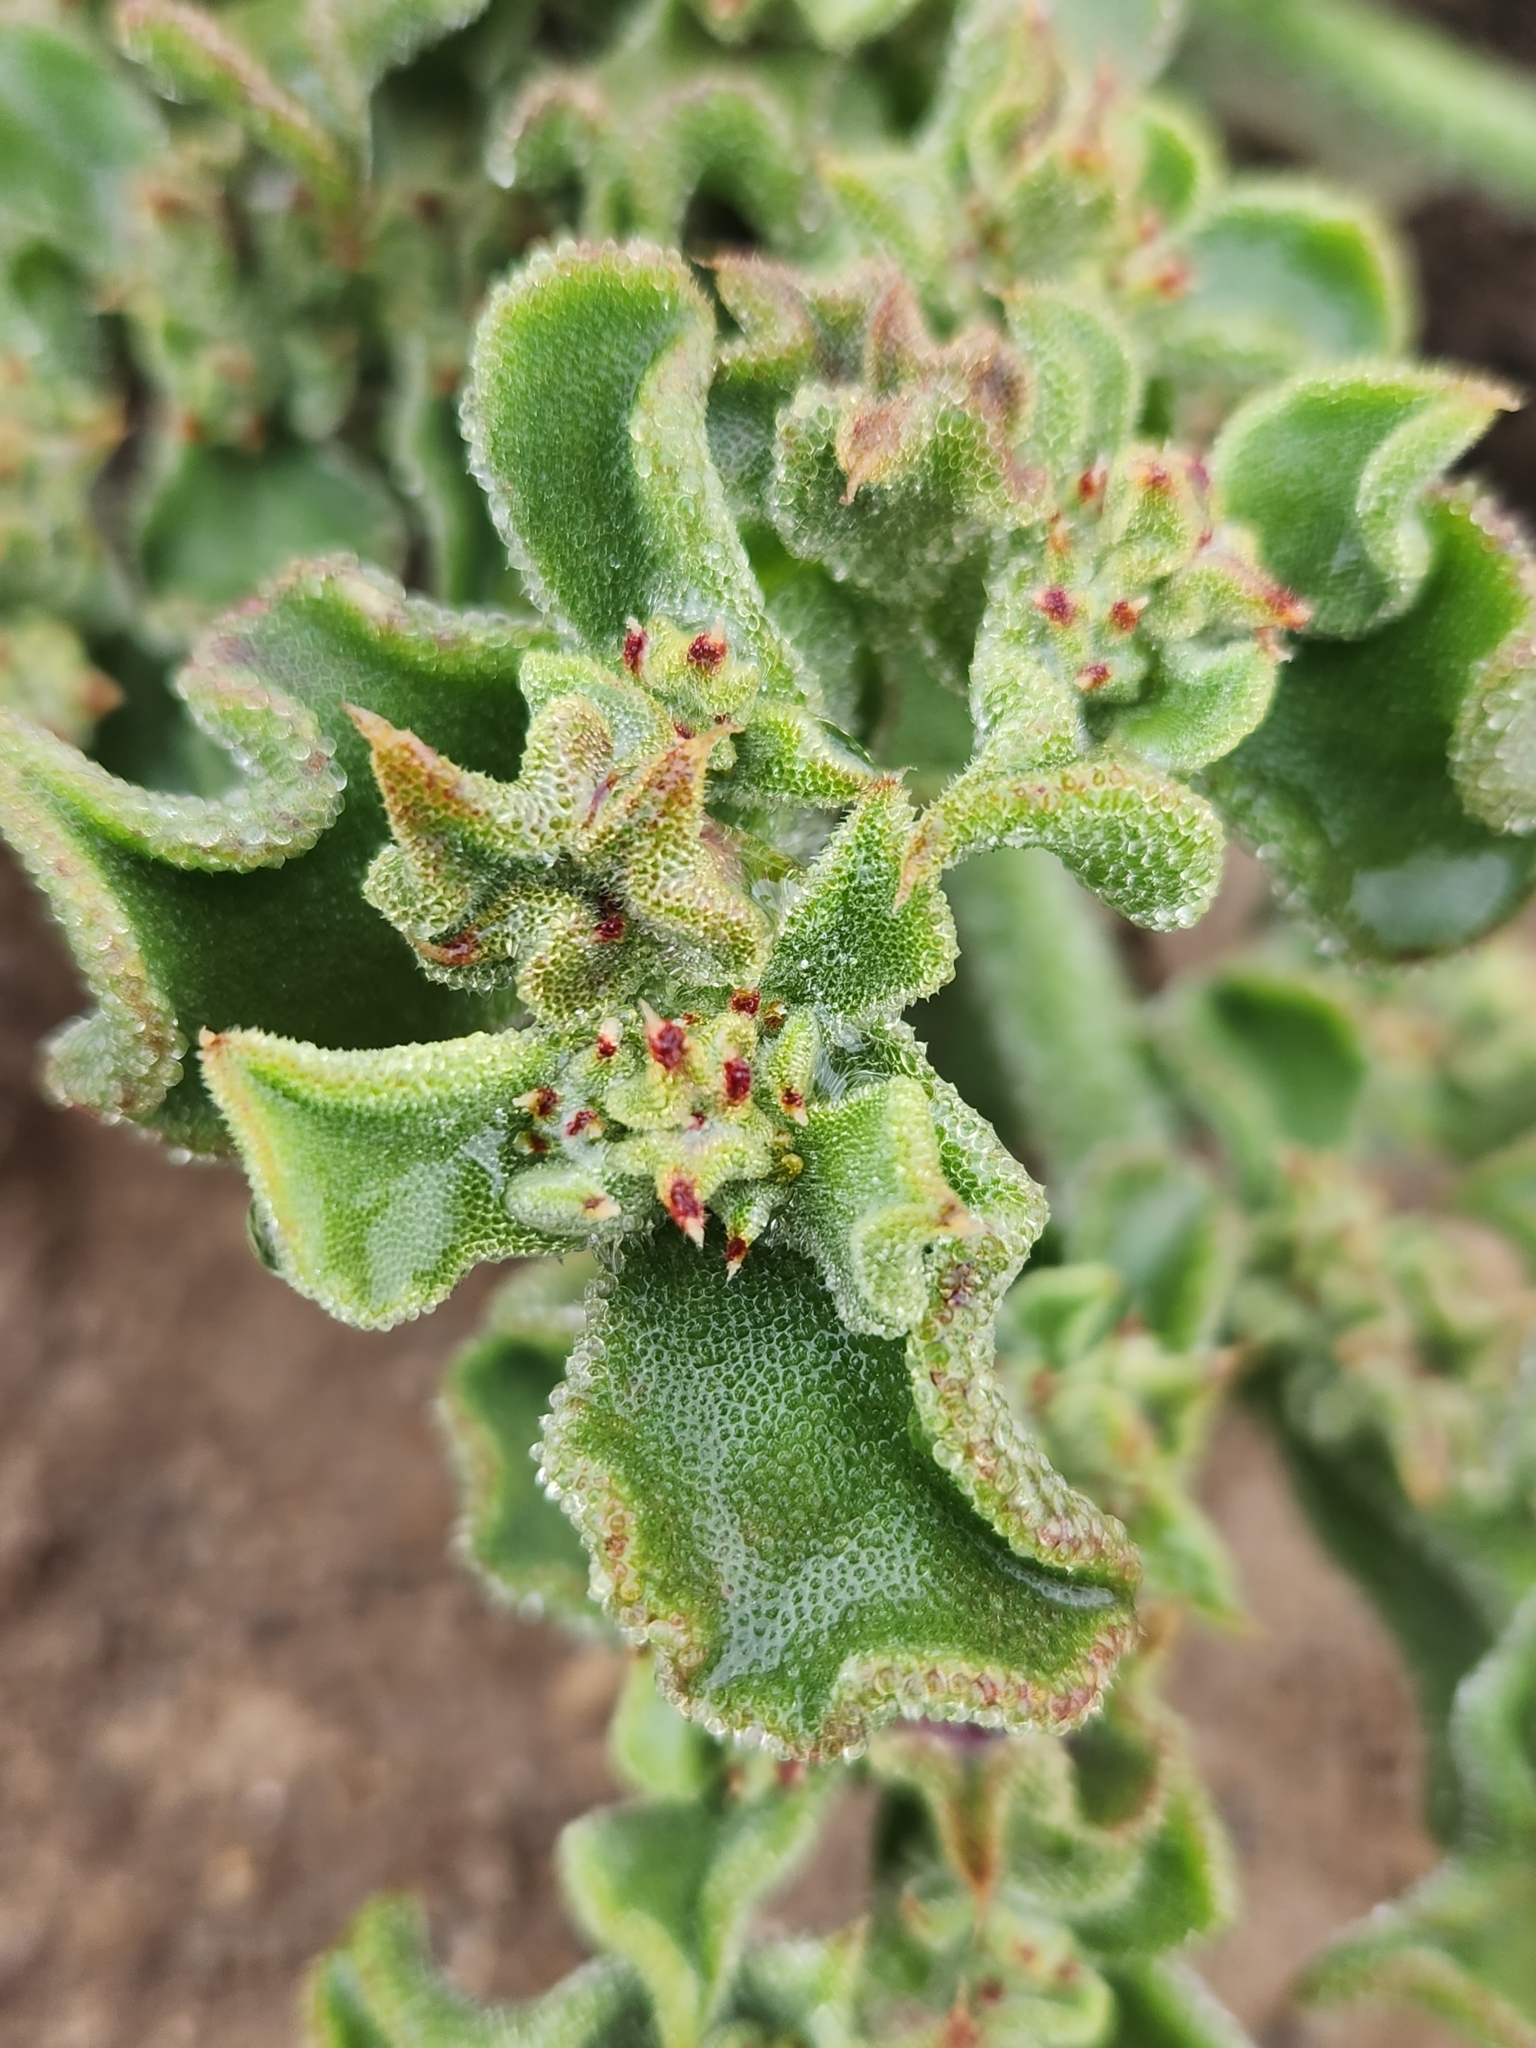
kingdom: Plantae
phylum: Tracheophyta
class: Magnoliopsida
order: Caryophyllales
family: Aizoaceae
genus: Mesembryanthemum
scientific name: Mesembryanthemum crystallinum
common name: Common iceplant
